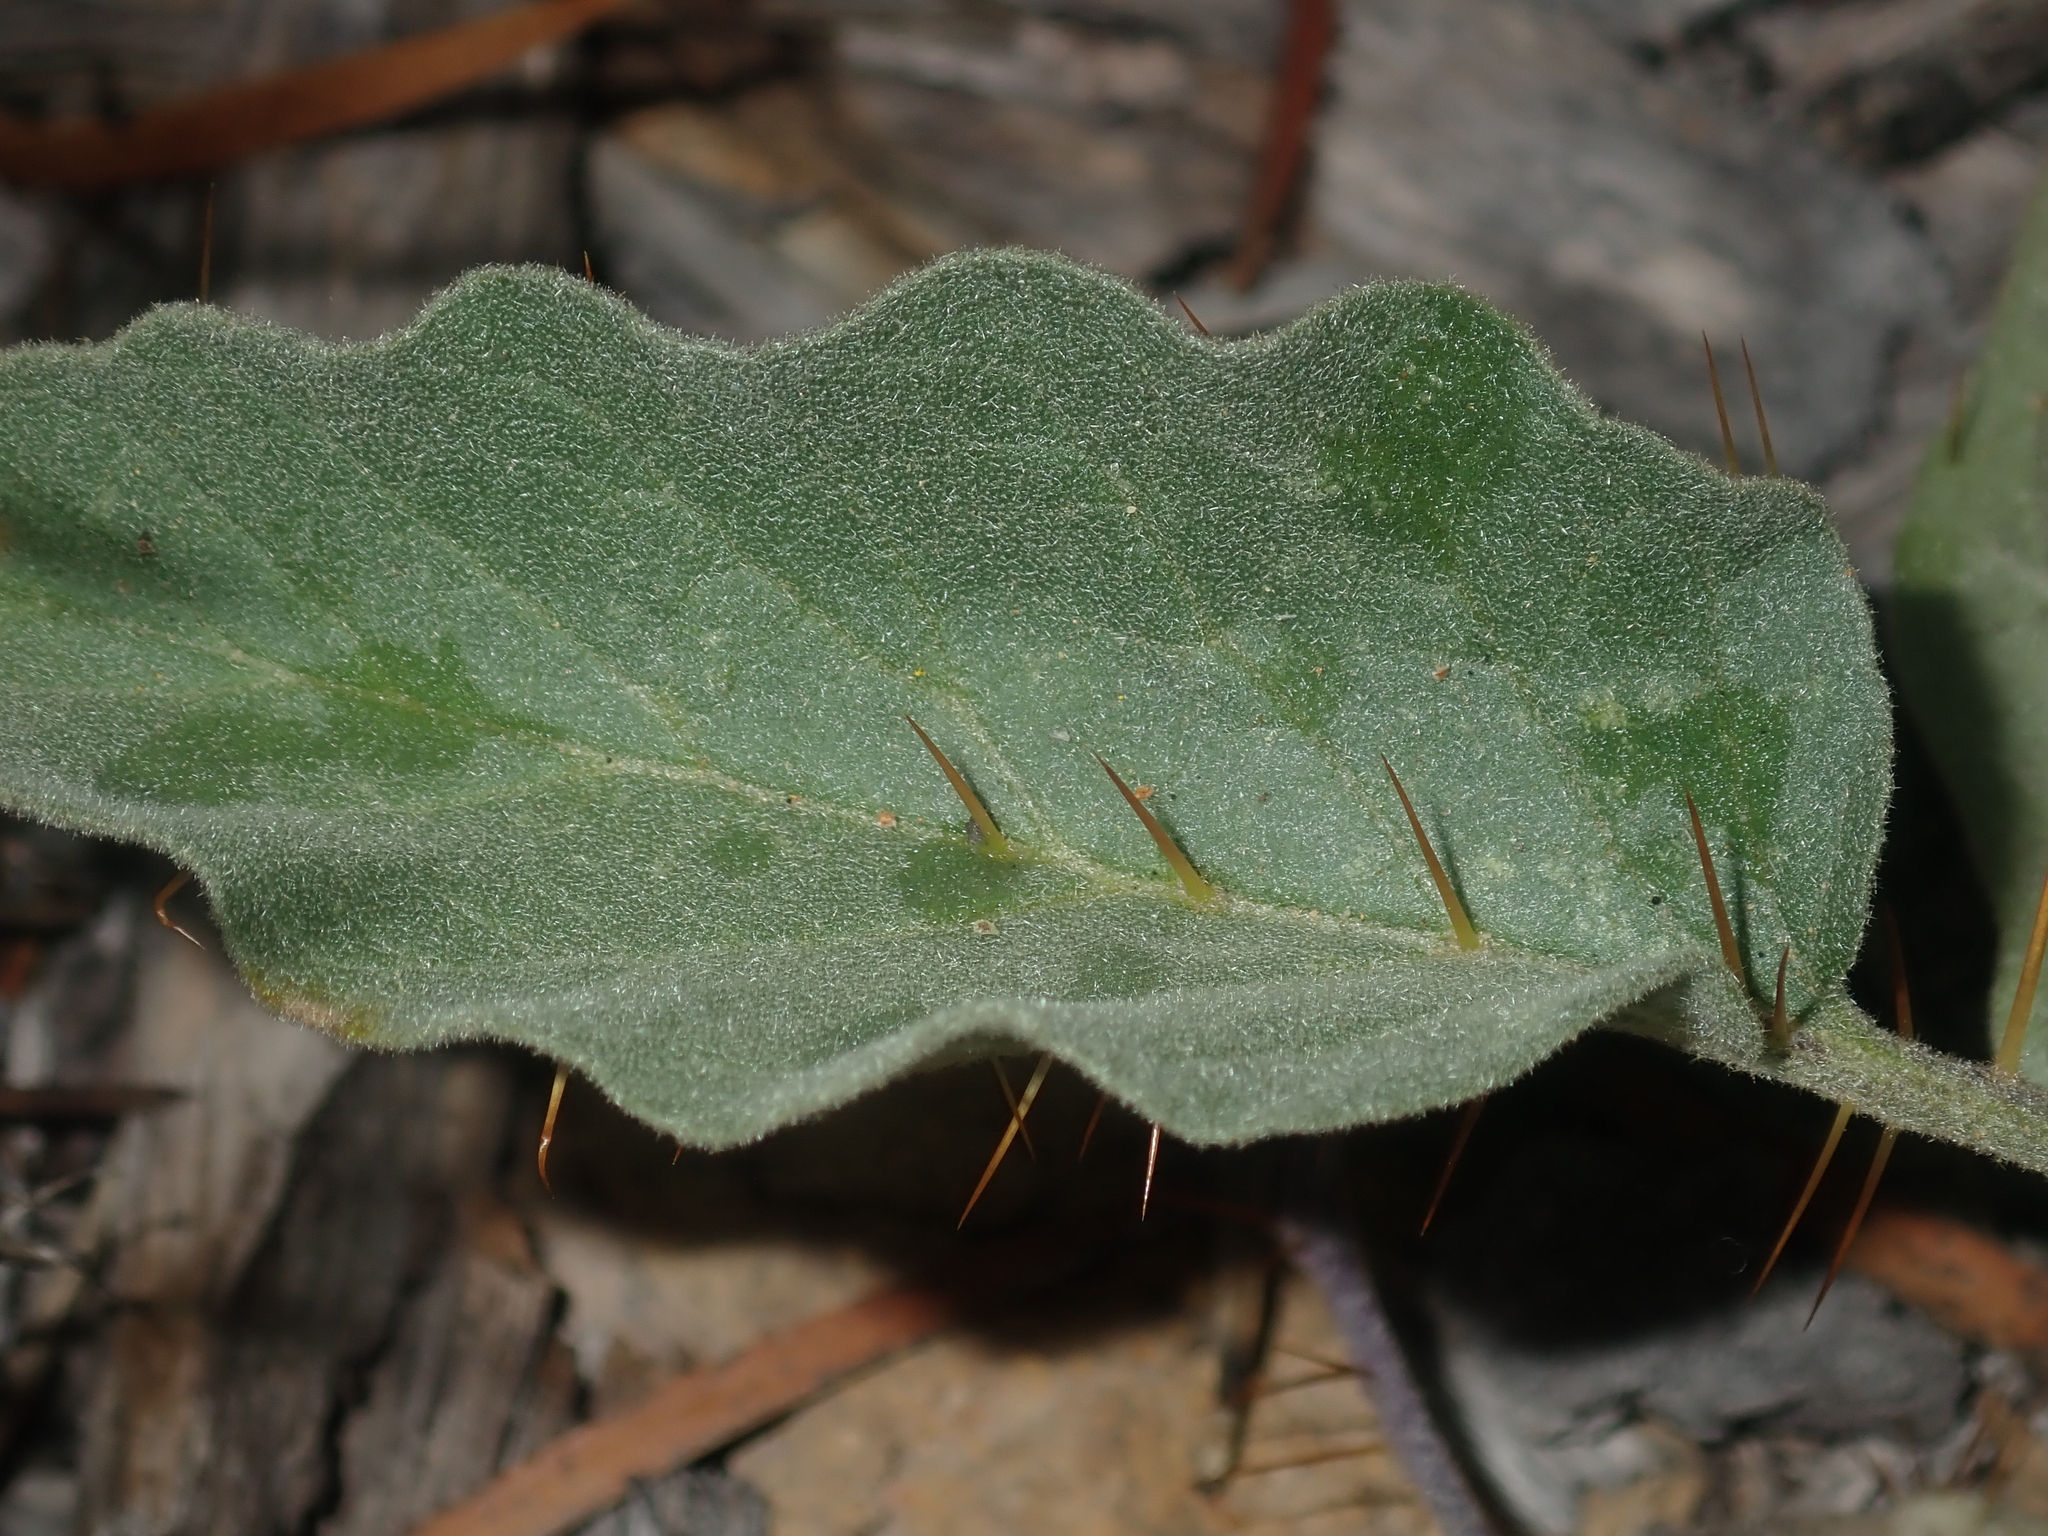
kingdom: Plantae
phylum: Tracheophyta
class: Magnoliopsida
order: Solanales
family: Solanaceae
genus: Solanum
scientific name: Solanum cleistogamum
